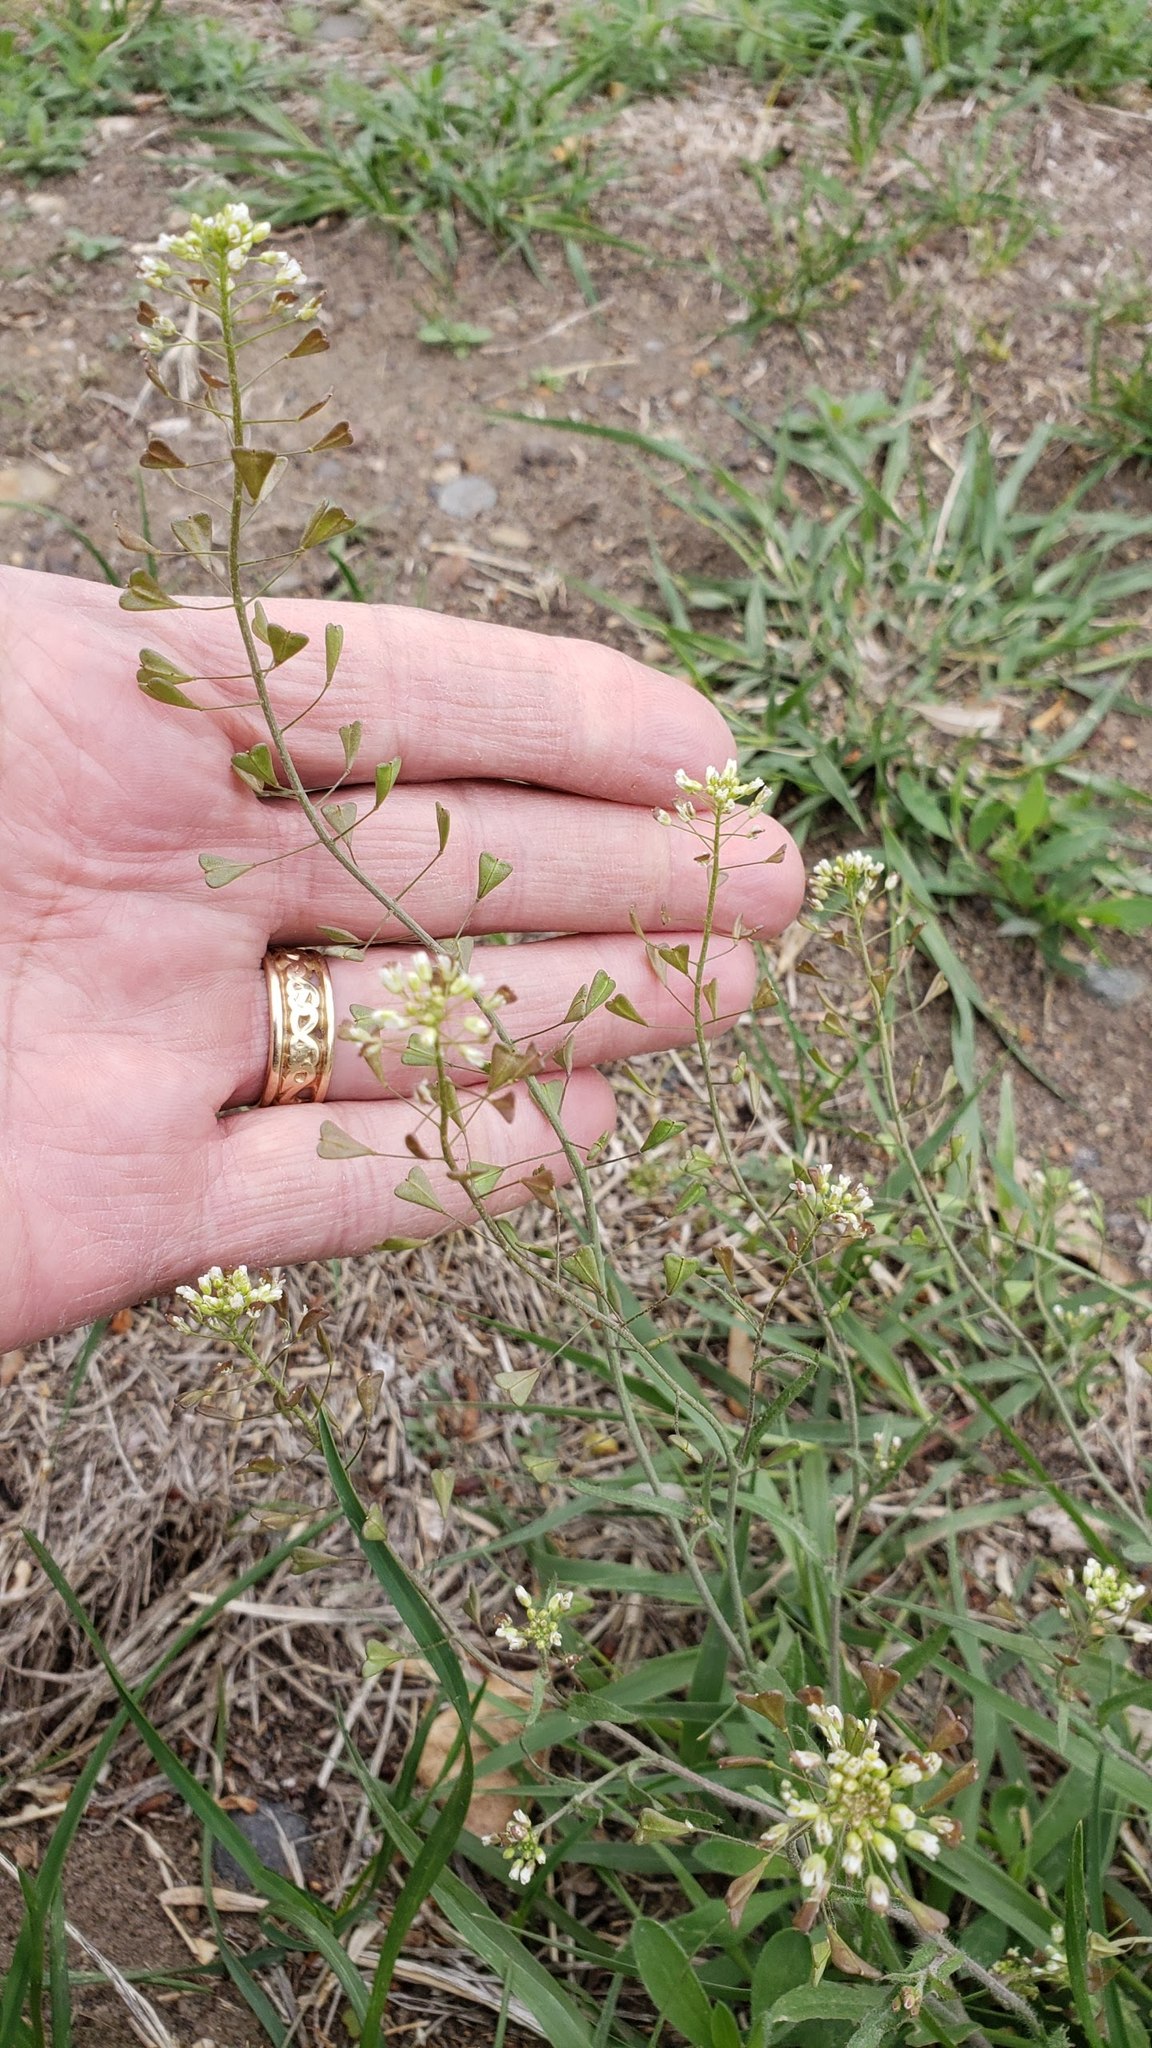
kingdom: Plantae
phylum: Tracheophyta
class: Magnoliopsida
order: Brassicales
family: Brassicaceae
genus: Capsella
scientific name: Capsella bursa-pastoris
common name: Shepherd's purse
